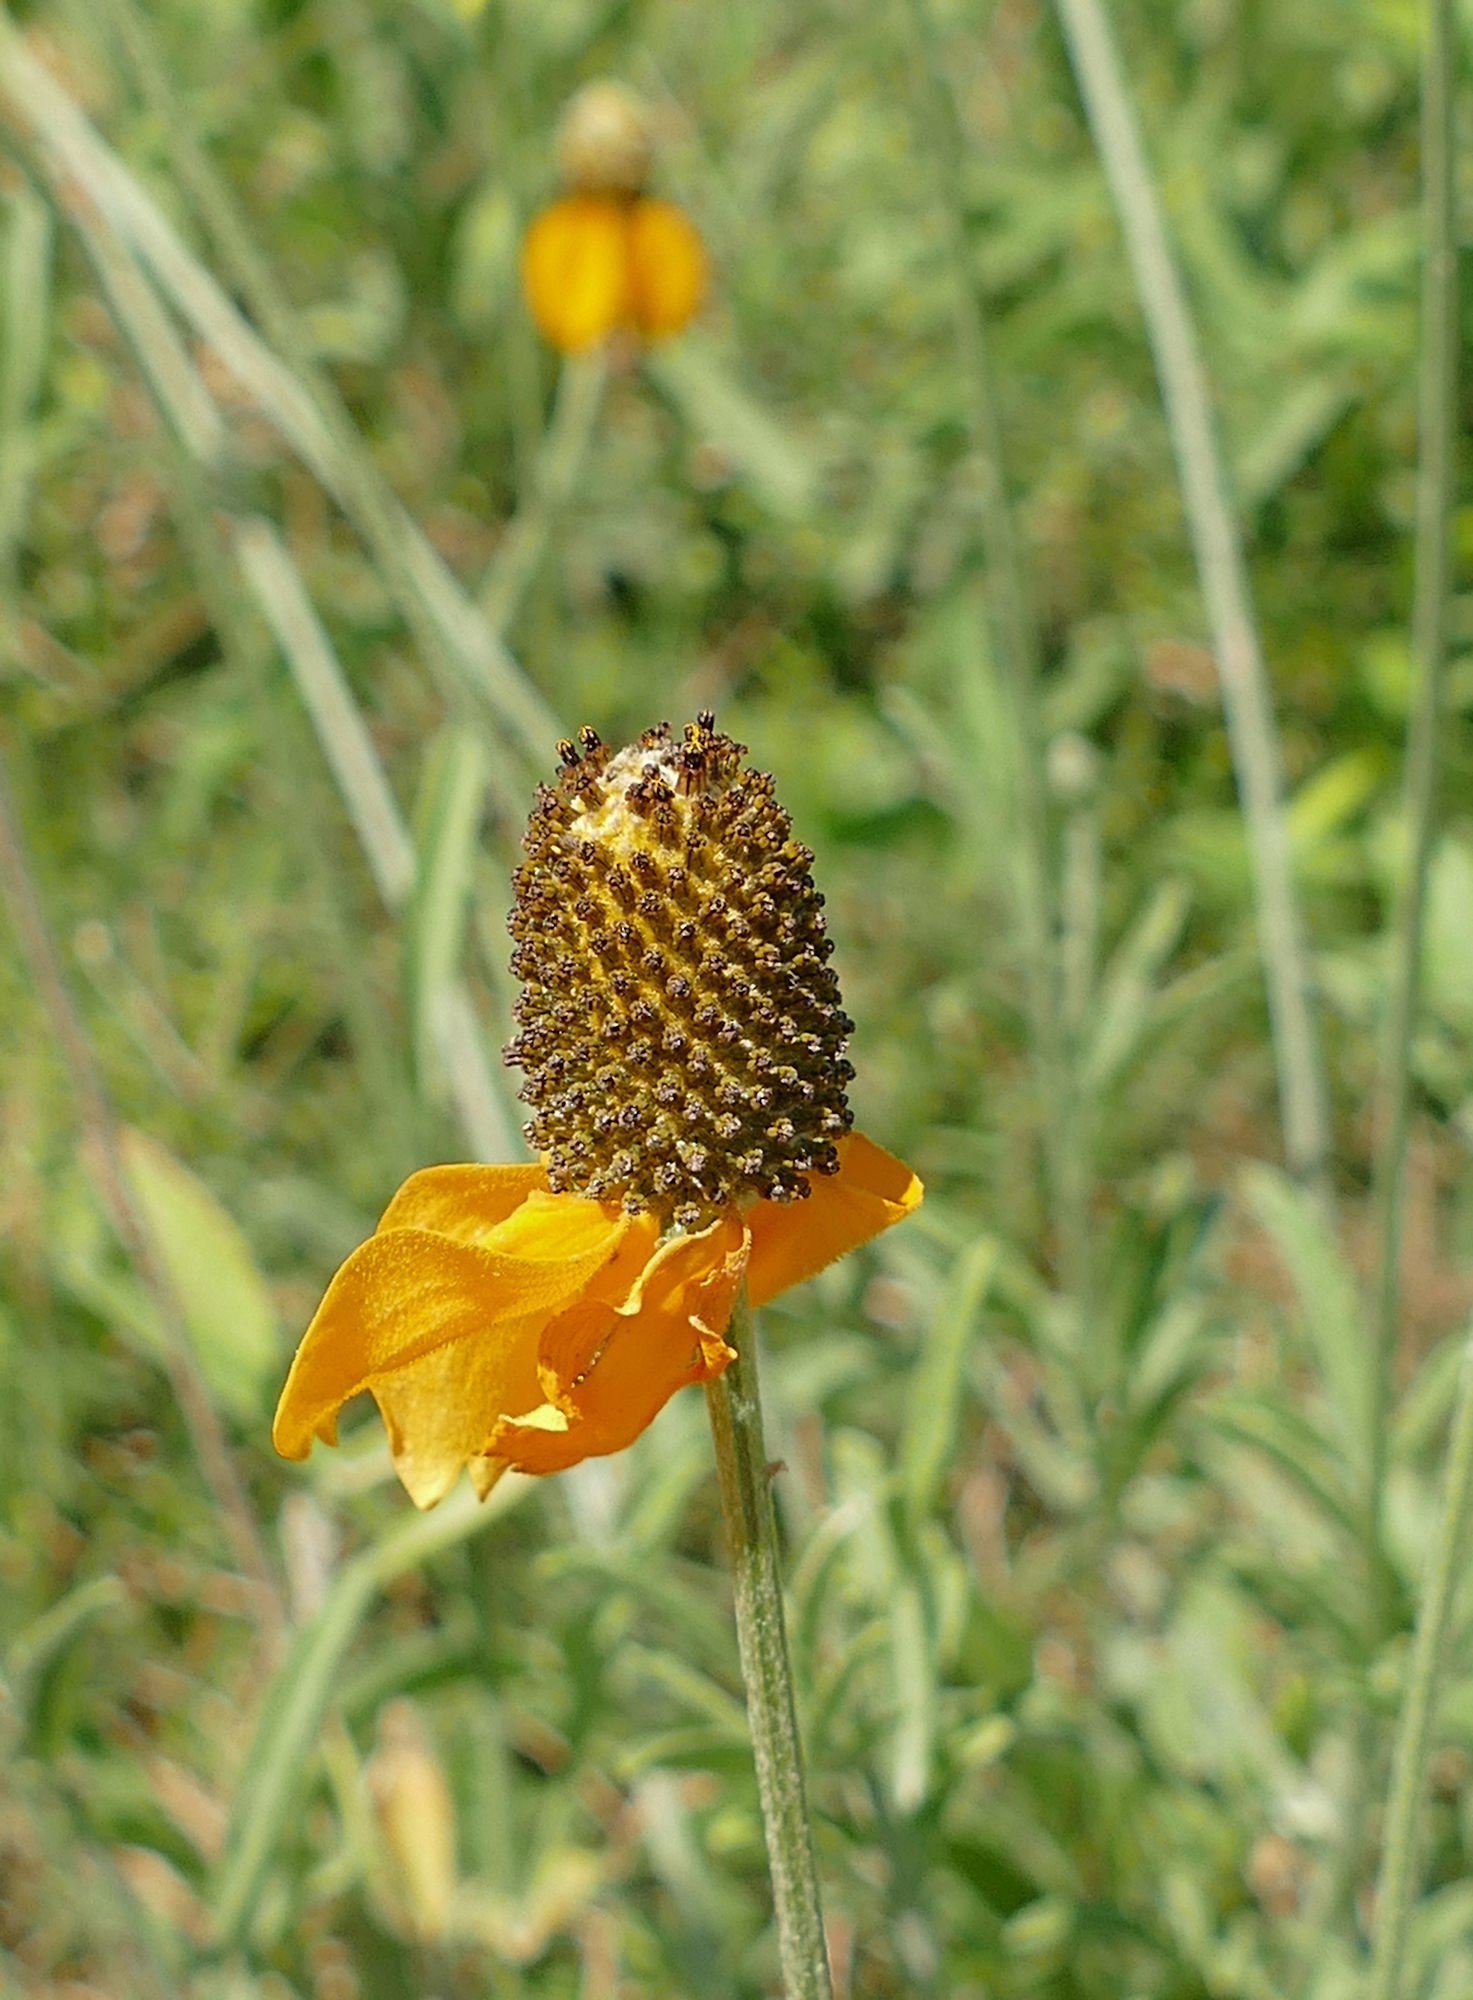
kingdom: Plantae
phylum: Tracheophyta
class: Magnoliopsida
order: Asterales
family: Asteraceae
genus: Ratibida
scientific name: Ratibida columnifera
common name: Prairie coneflower
